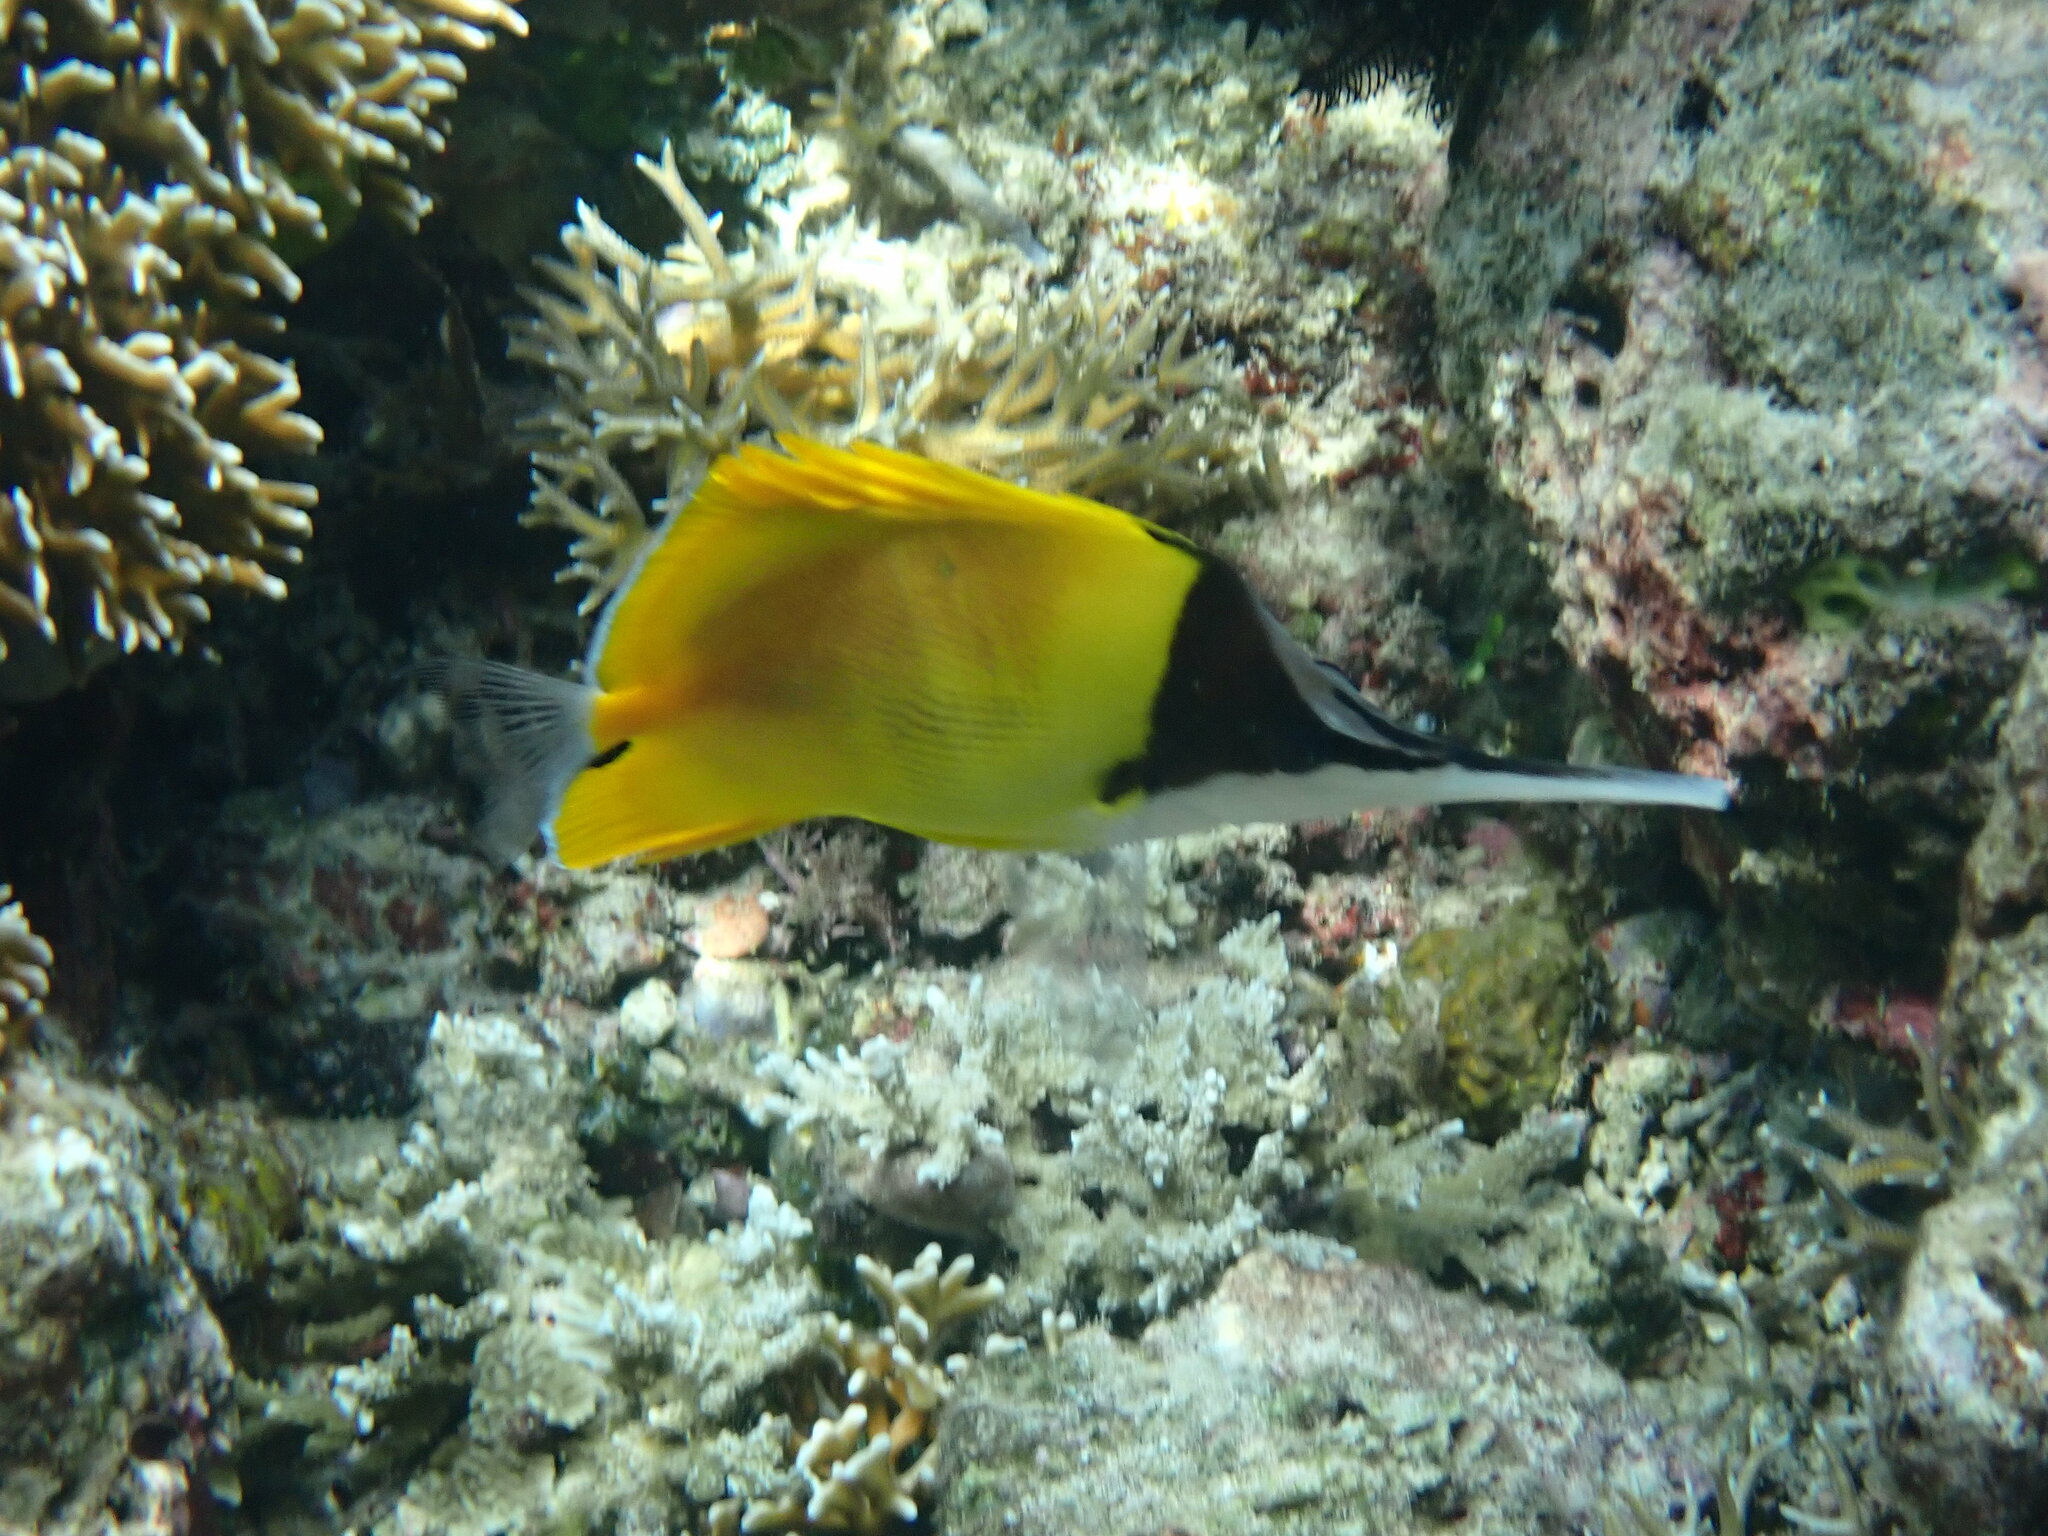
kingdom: Animalia
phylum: Chordata
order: Perciformes
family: Chaetodontidae
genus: Forcipiger
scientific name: Forcipiger longirostris
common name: Longnose butterflyfish
